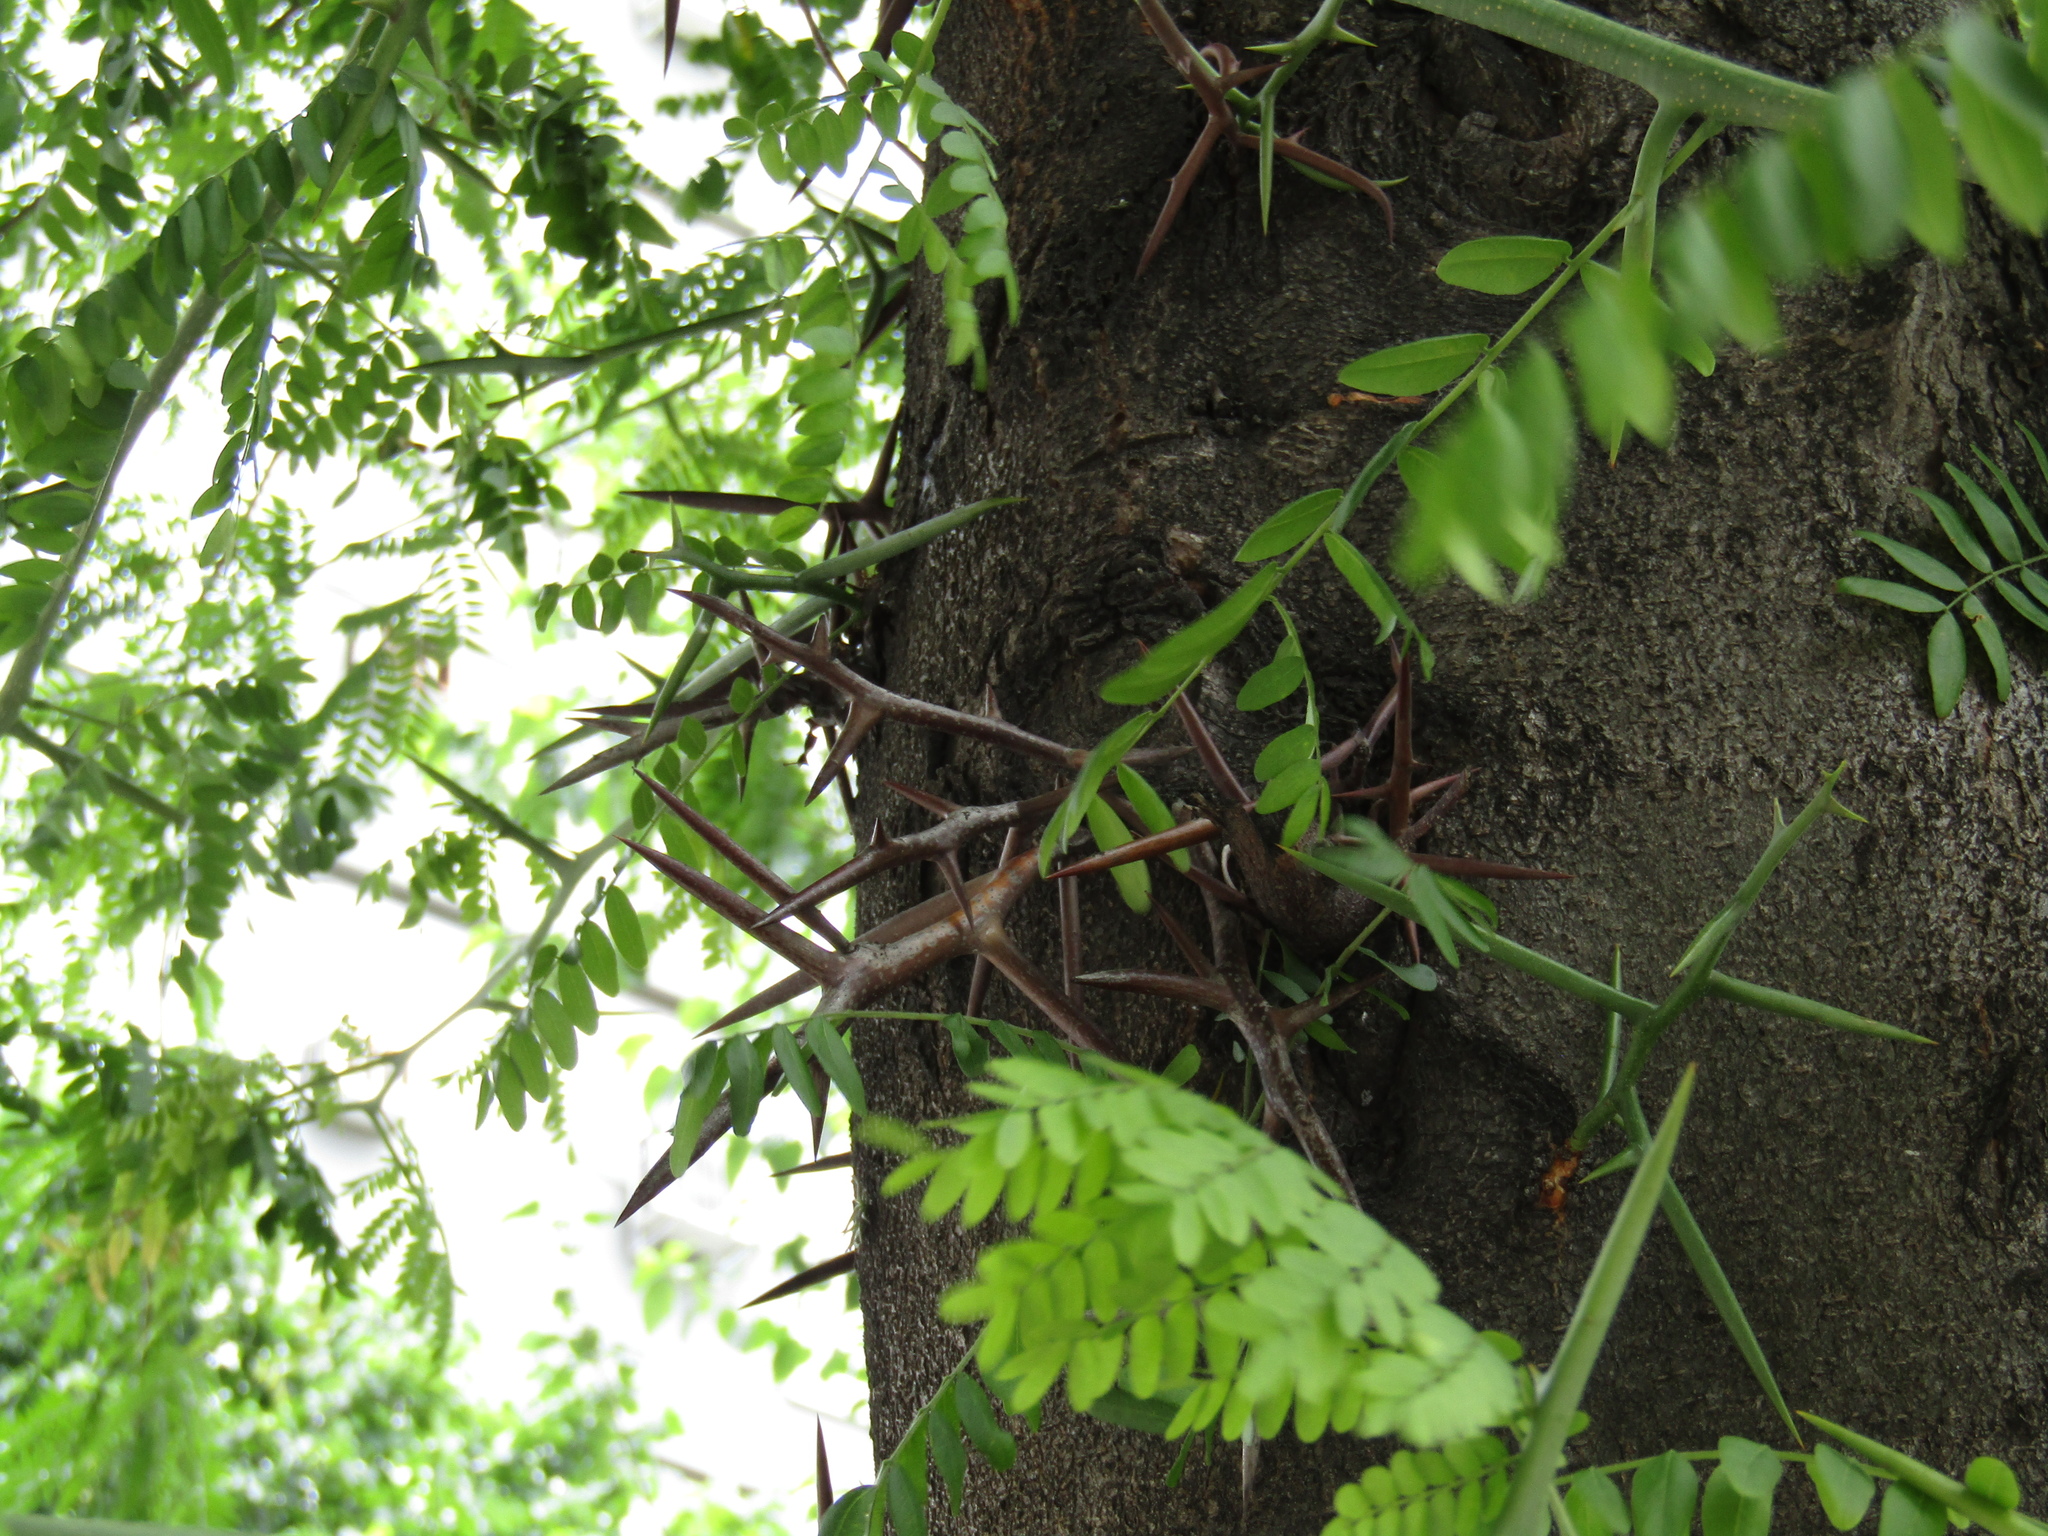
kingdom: Plantae
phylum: Tracheophyta
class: Magnoliopsida
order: Fabales
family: Fabaceae
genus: Gleditsia
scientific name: Gleditsia triacanthos
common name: Common honeylocust
